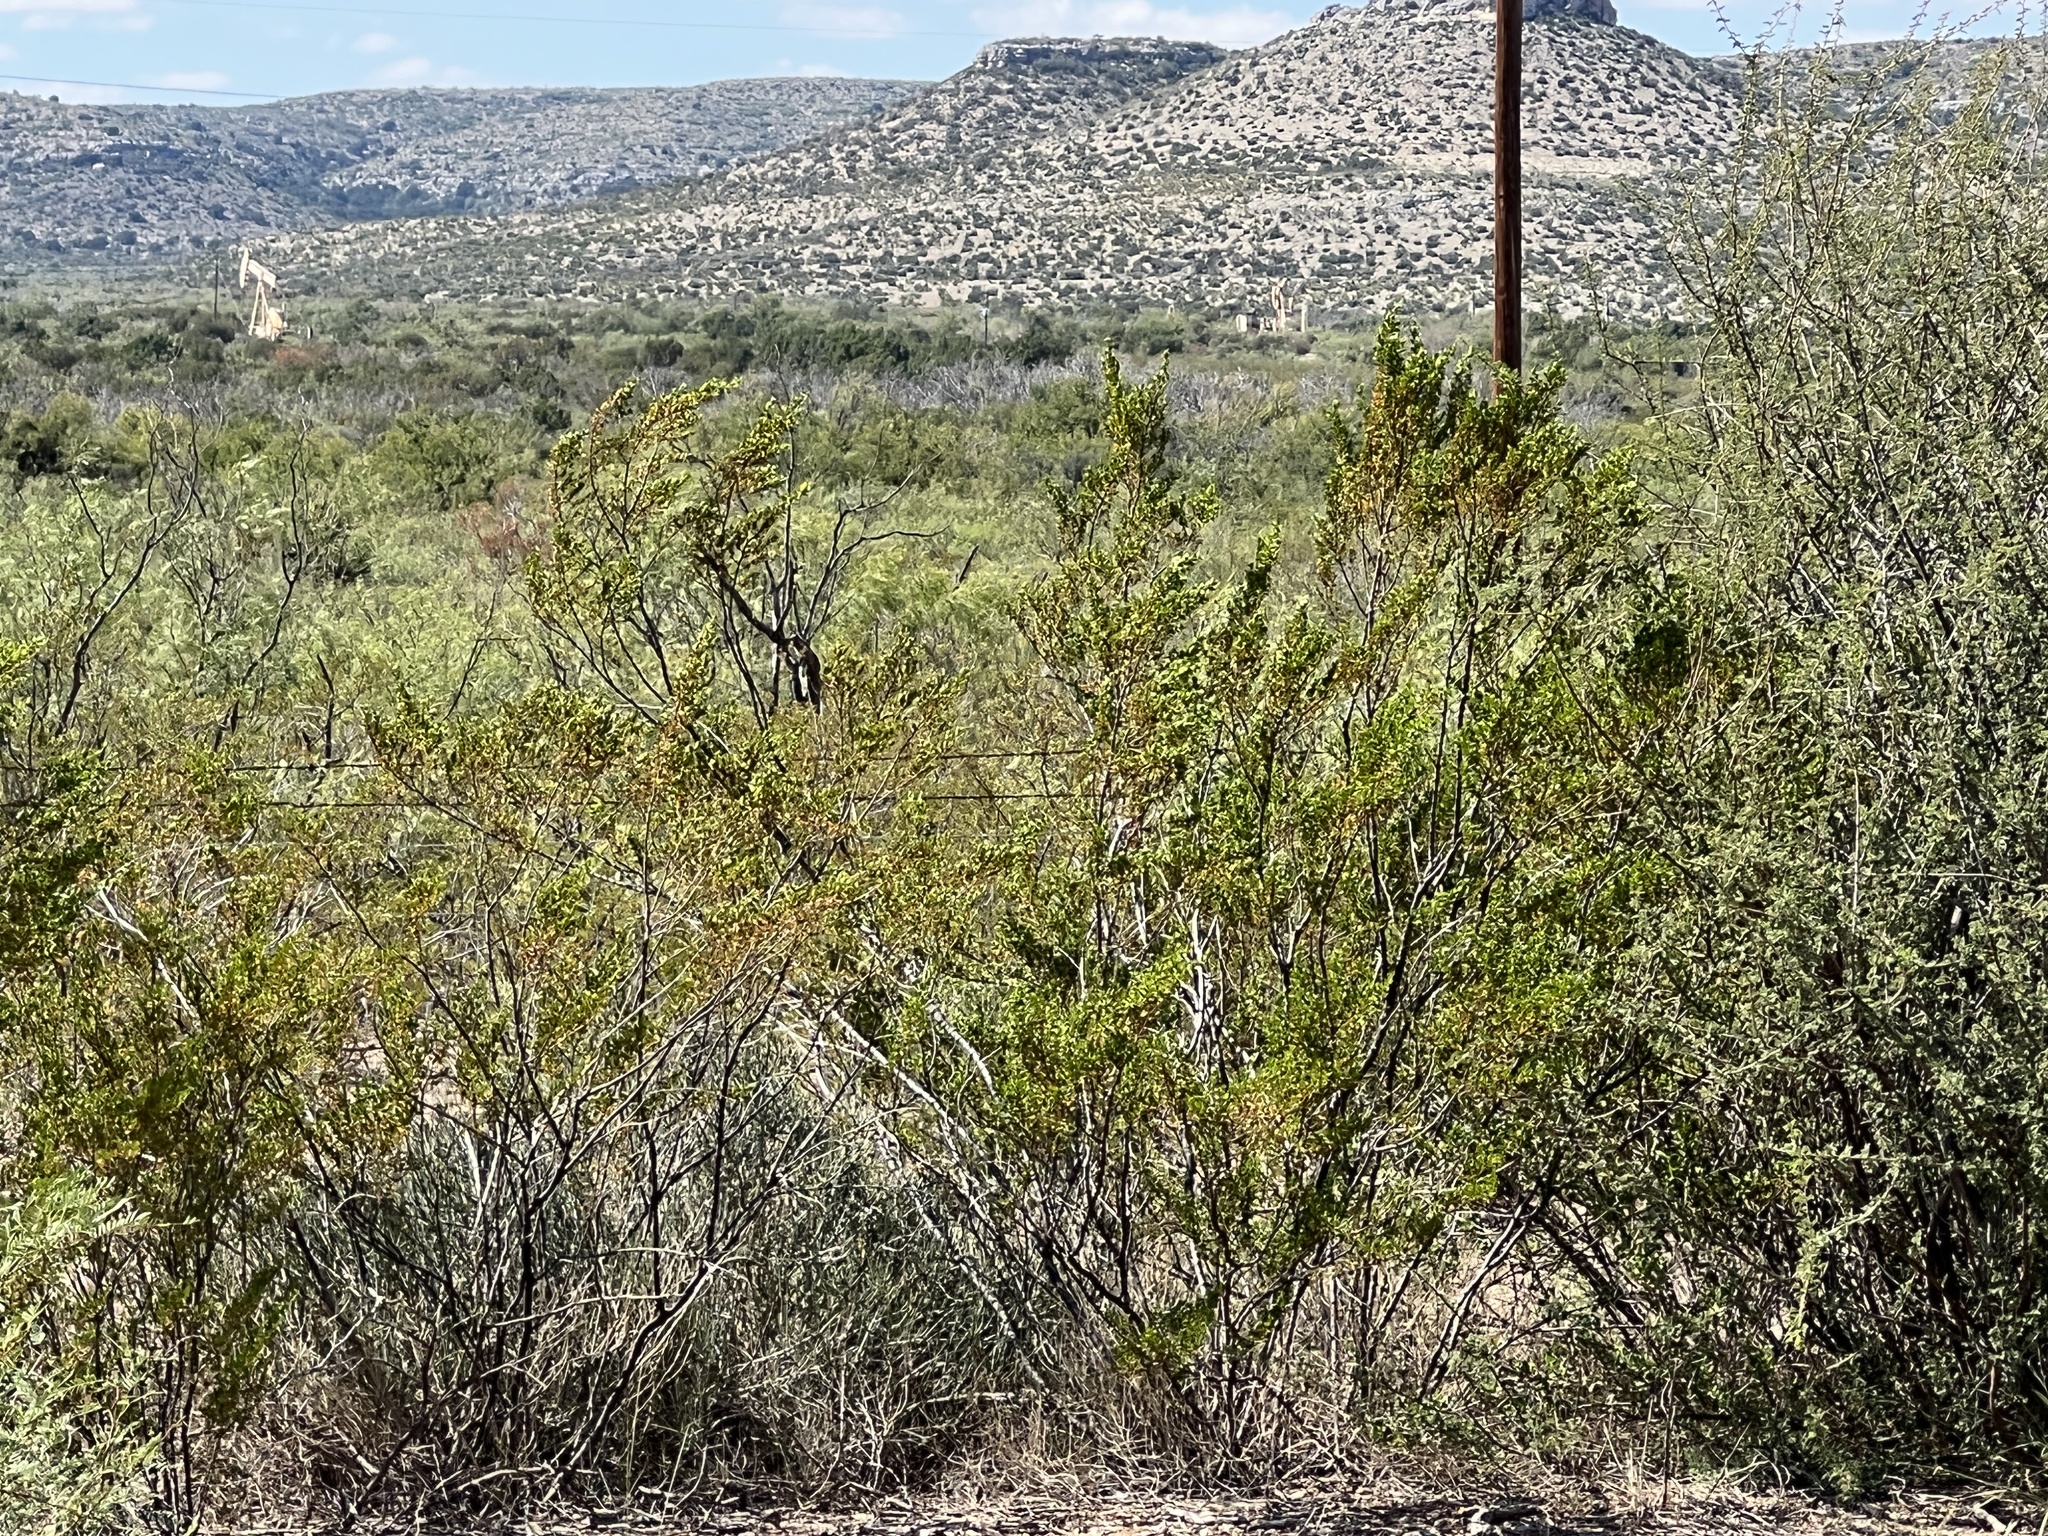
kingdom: Plantae
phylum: Tracheophyta
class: Magnoliopsida
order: Zygophyllales
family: Zygophyllaceae
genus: Larrea
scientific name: Larrea tridentata
